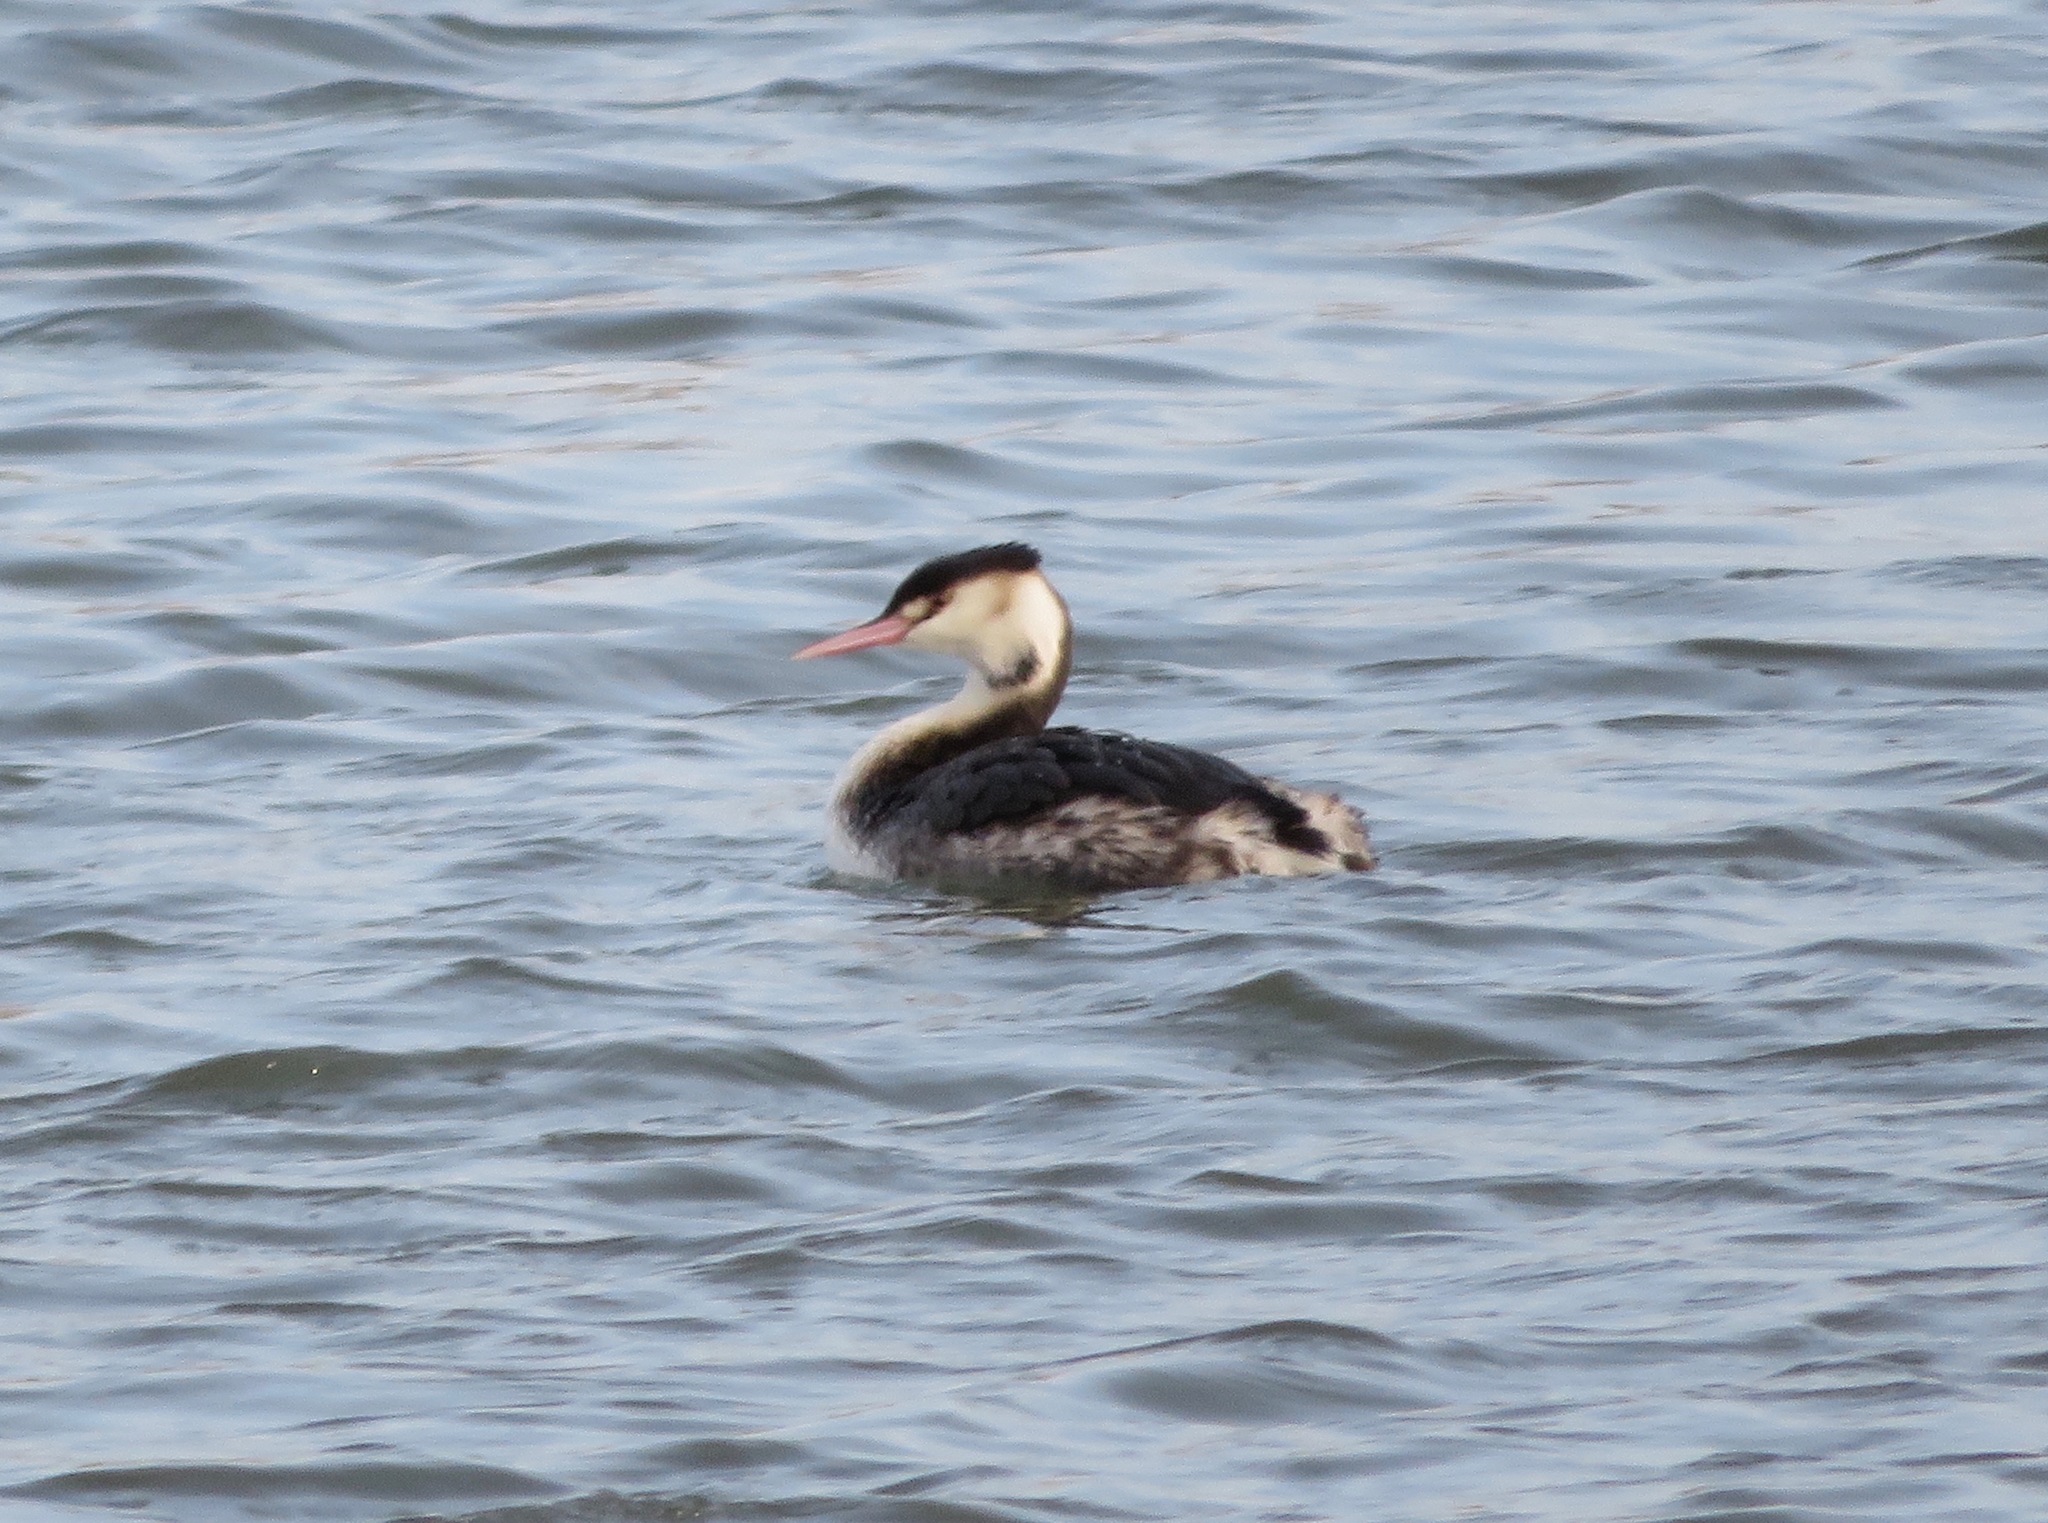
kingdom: Animalia
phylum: Chordata
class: Aves
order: Podicipediformes
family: Podicipedidae
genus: Podiceps
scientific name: Podiceps cristatus
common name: Great crested grebe
